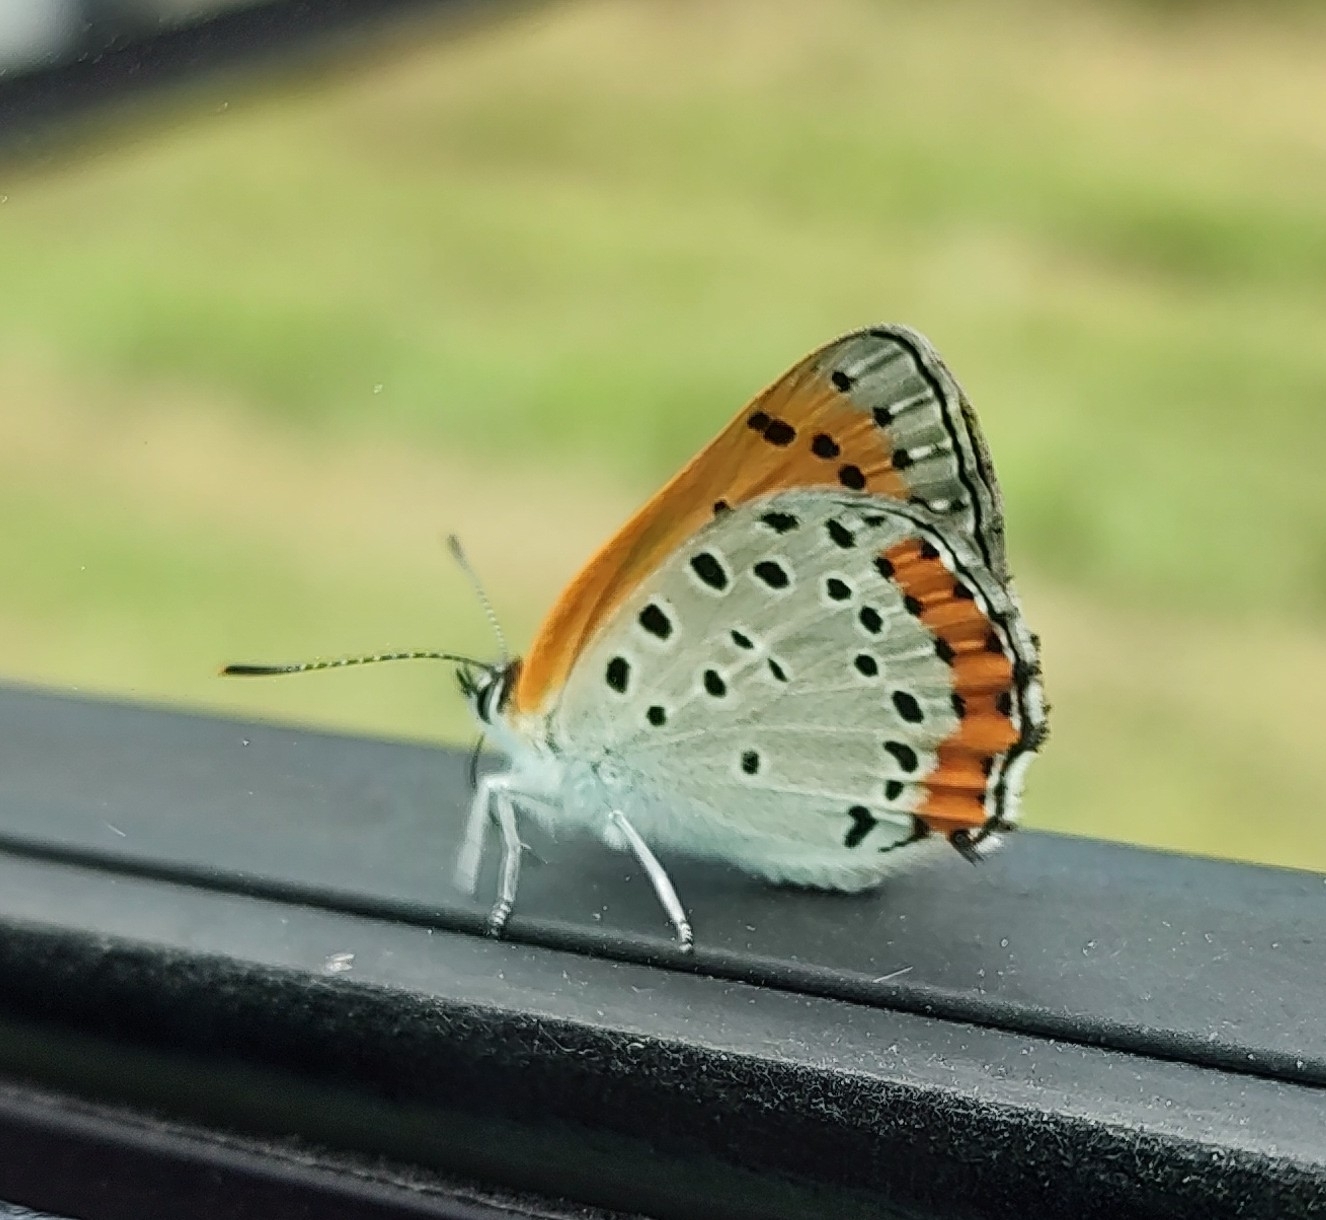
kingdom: Animalia
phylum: Arthropoda
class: Insecta
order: Lepidoptera
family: Lycaenidae
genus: Tharsalea
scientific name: Tharsalea hyllus
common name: Bronze copper
